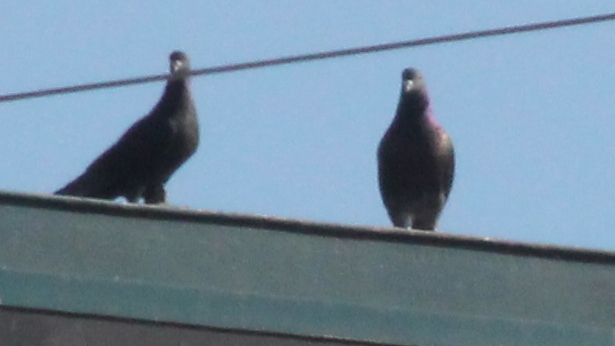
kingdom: Animalia
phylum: Chordata
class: Aves
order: Columbiformes
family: Columbidae
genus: Columba
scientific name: Columba livia
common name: Rock pigeon
